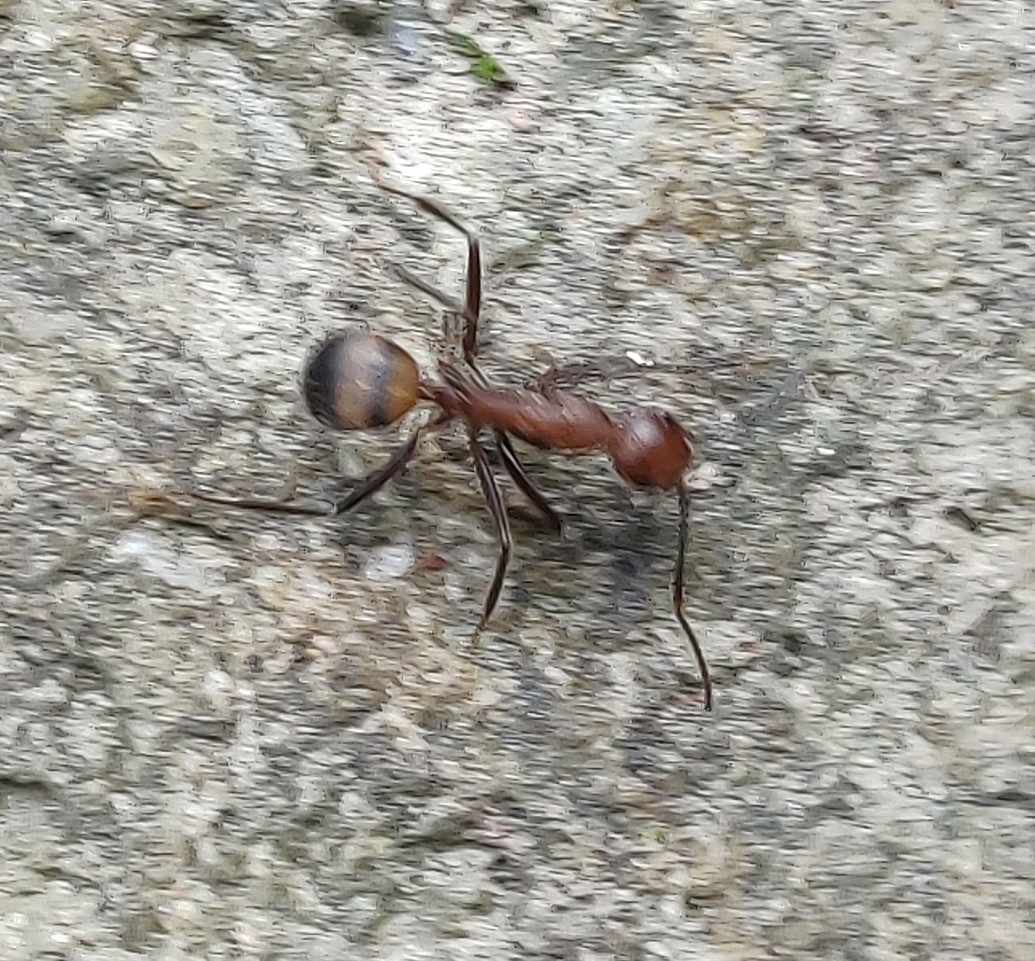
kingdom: Animalia
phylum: Arthropoda
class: Insecta
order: Hymenoptera
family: Formicidae
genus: Camponotus
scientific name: Camponotus nicobarensis
